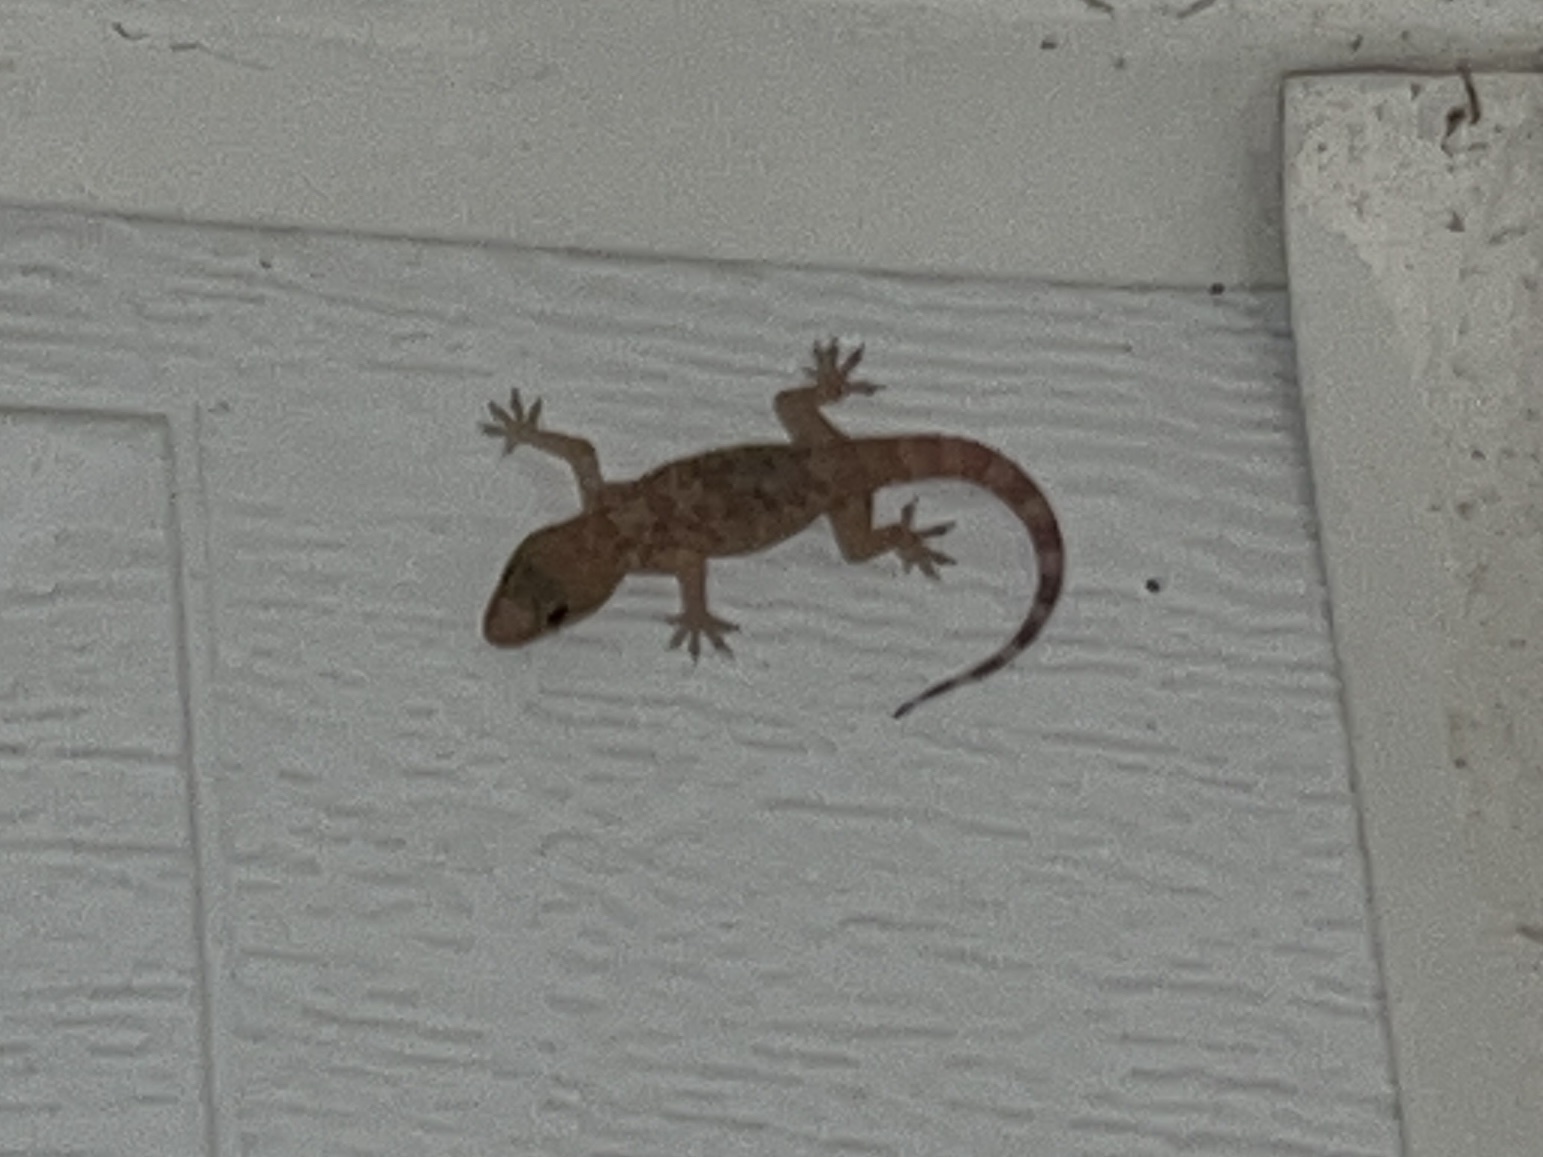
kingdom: Animalia
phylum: Chordata
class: Squamata
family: Gekkonidae
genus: Hemidactylus
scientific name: Hemidactylus turcicus
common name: Turkish gecko
